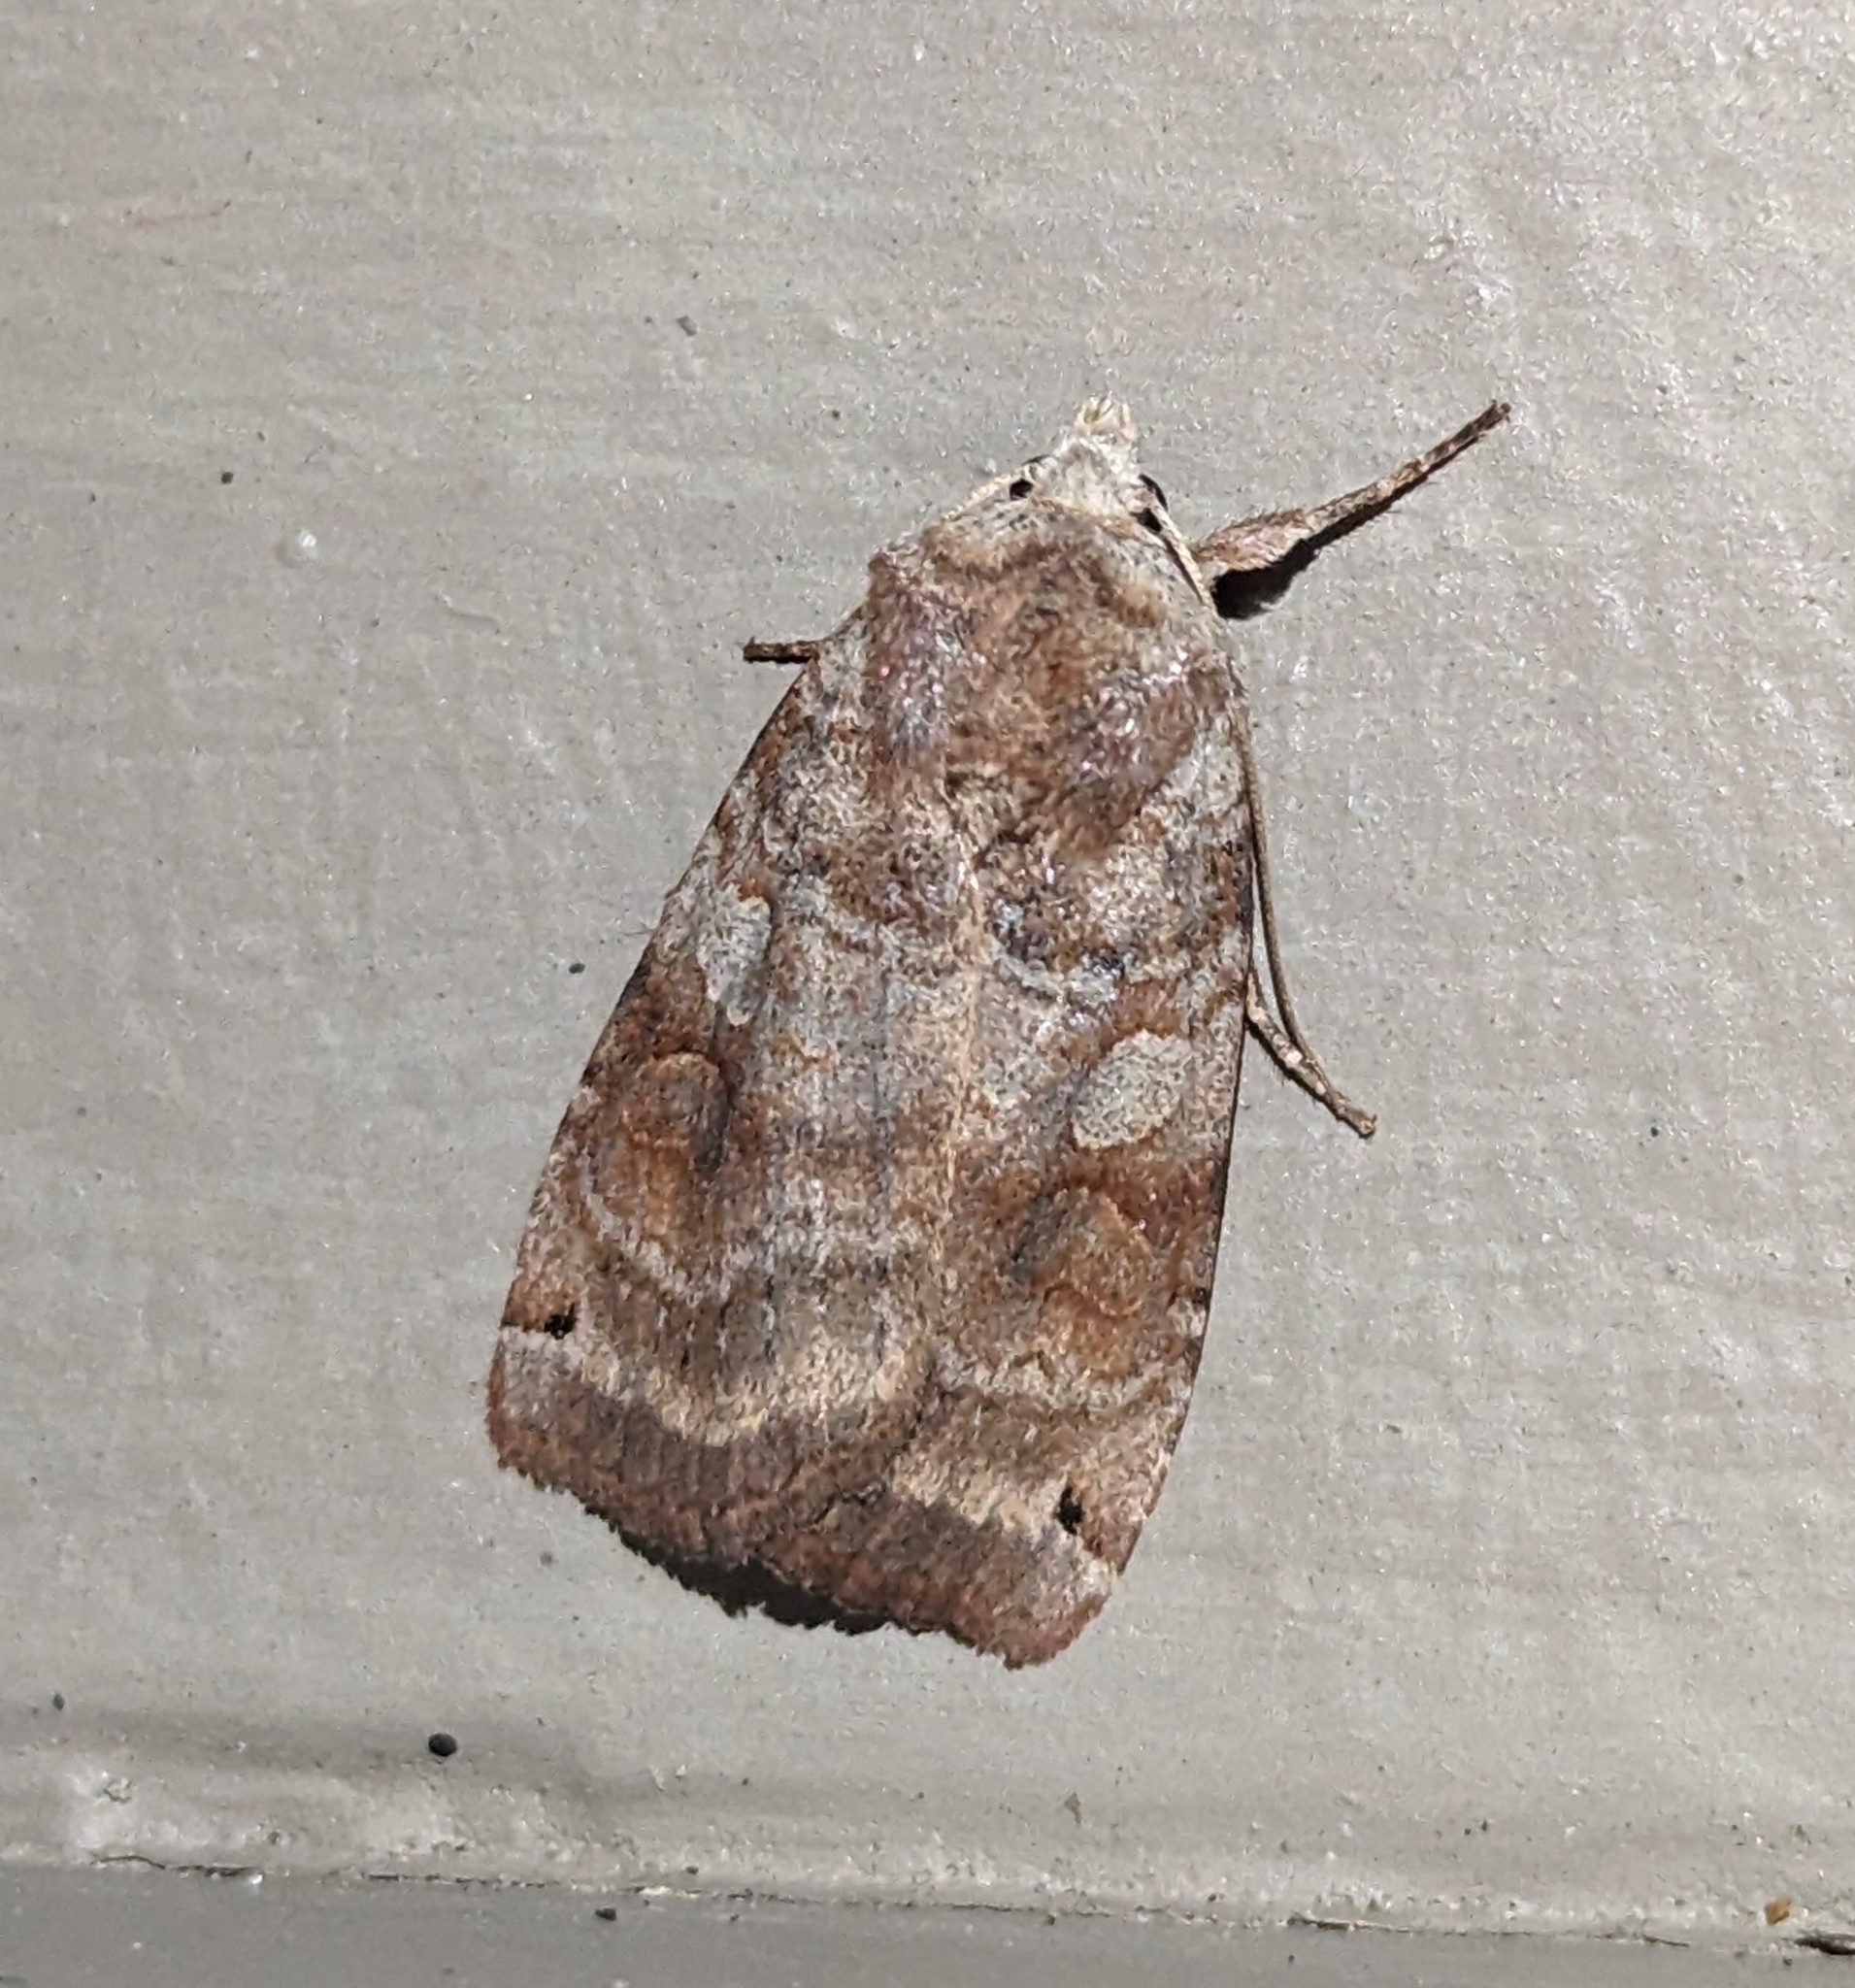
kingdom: Animalia
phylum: Arthropoda
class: Insecta
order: Lepidoptera
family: Noctuidae
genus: Xestia
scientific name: Xestia smithii
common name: Smith's dart
